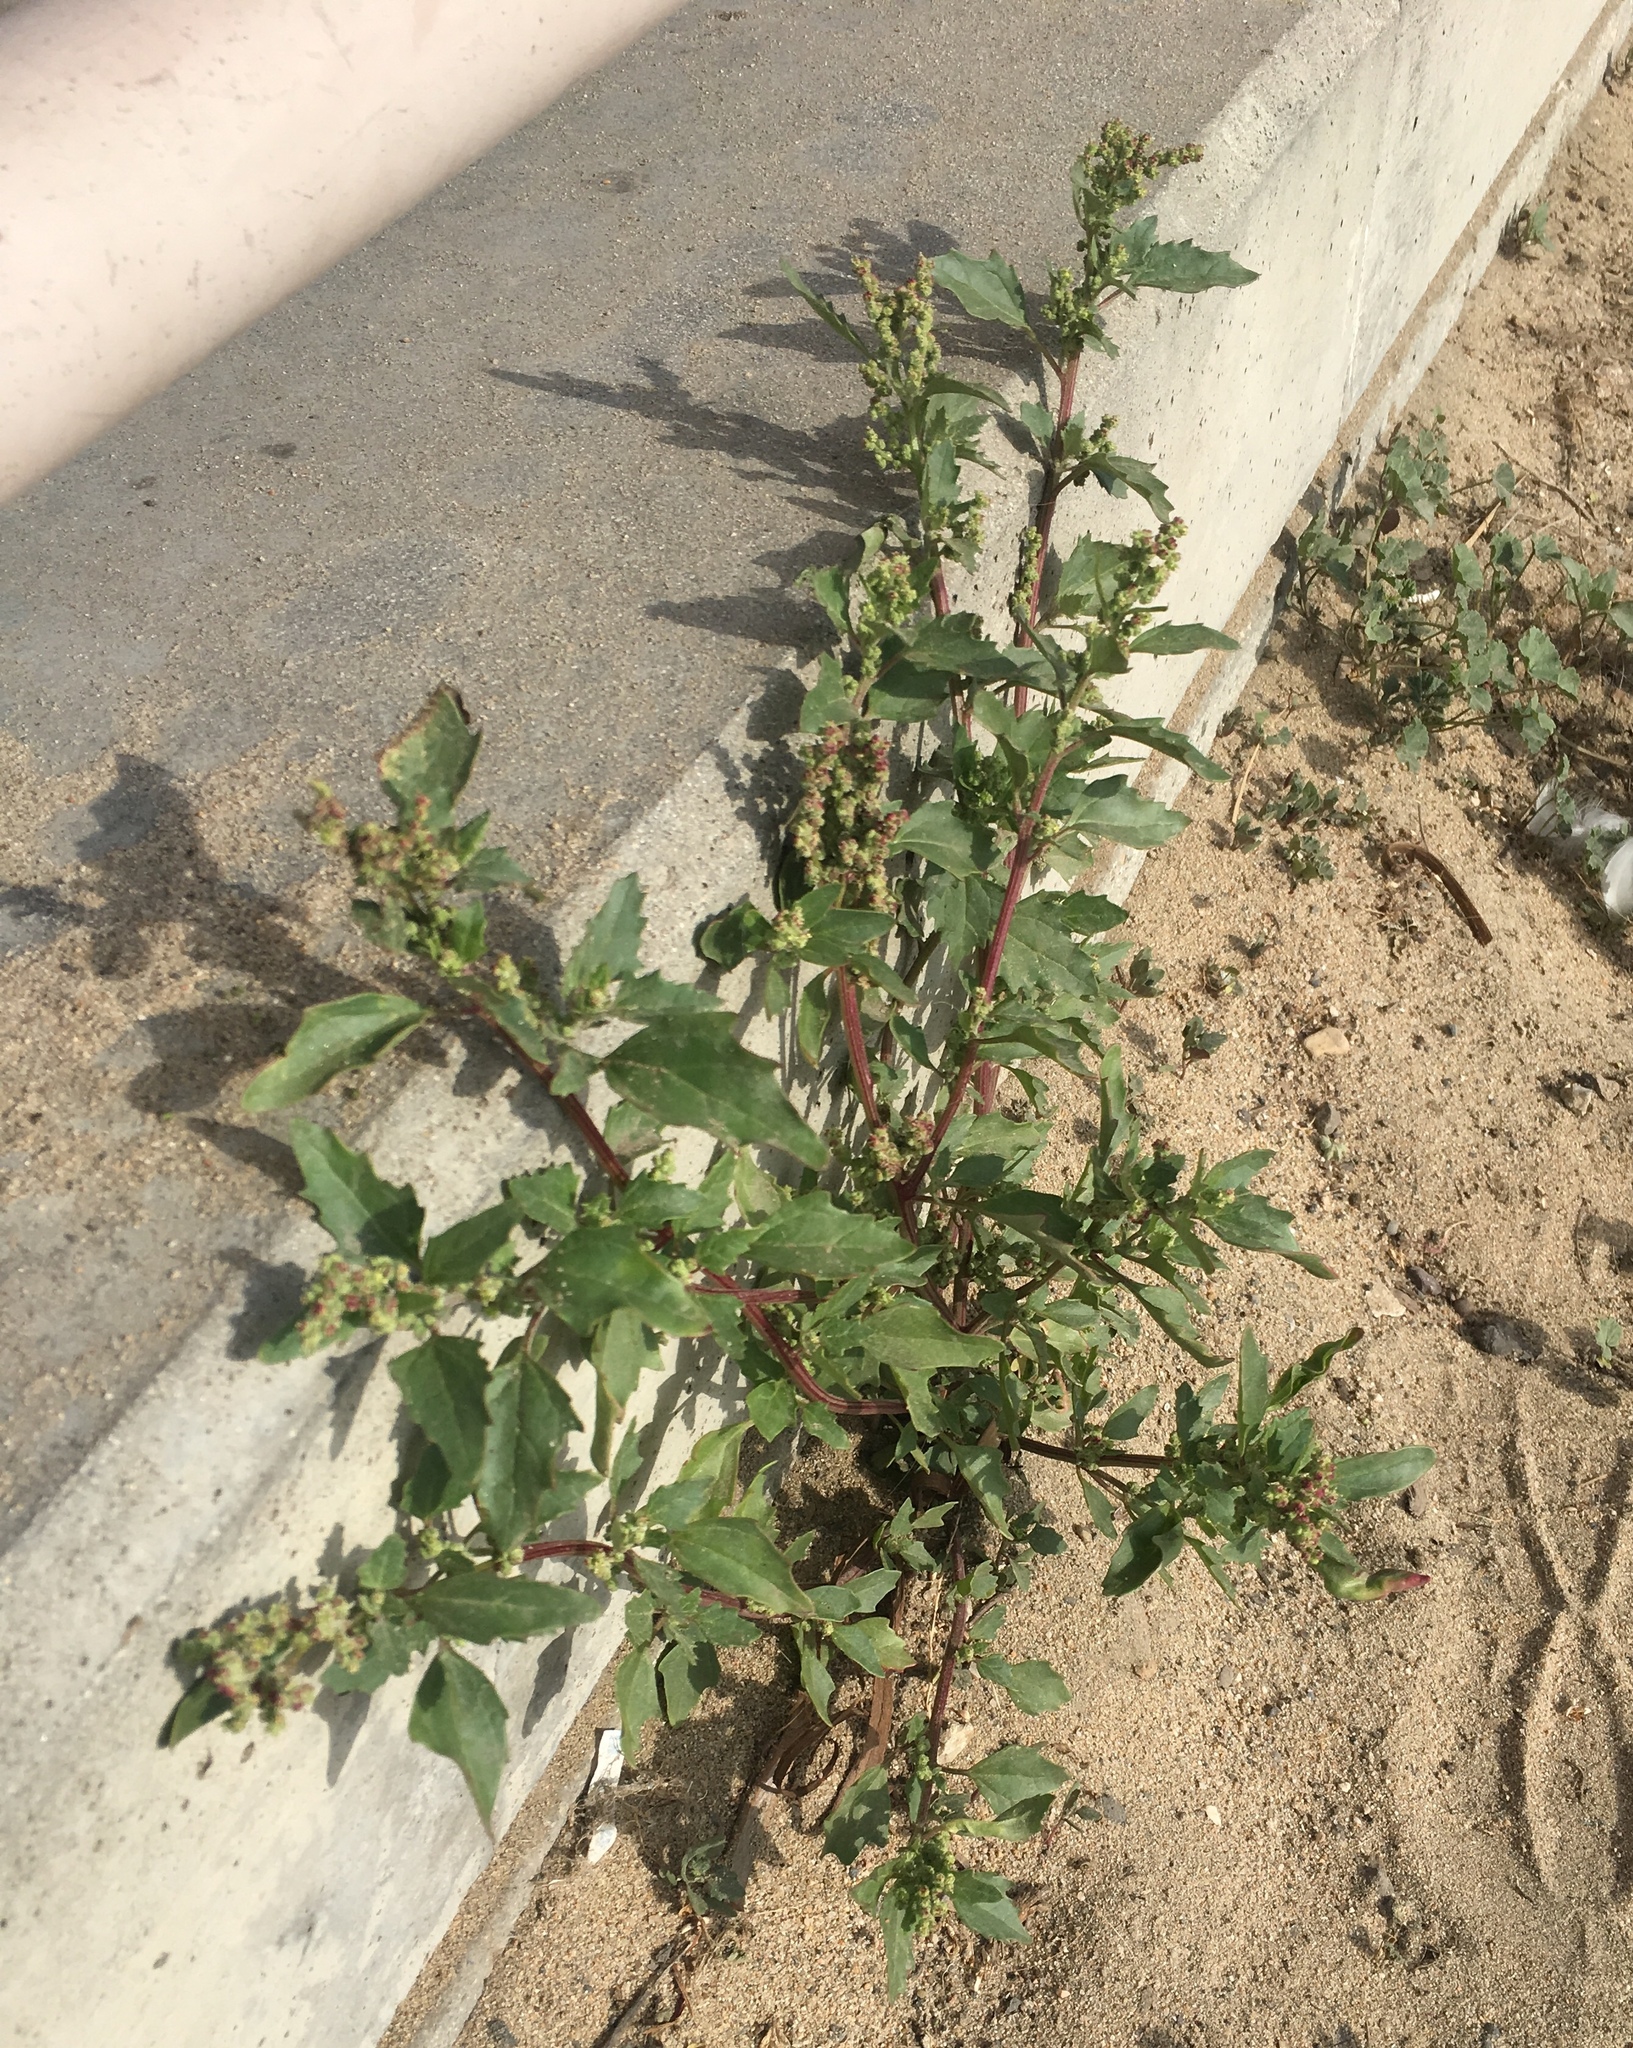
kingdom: Plantae
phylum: Tracheophyta
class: Magnoliopsida
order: Caryophyllales
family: Amaranthaceae
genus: Chenopodiastrum
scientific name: Chenopodiastrum murale
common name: Sowbane
